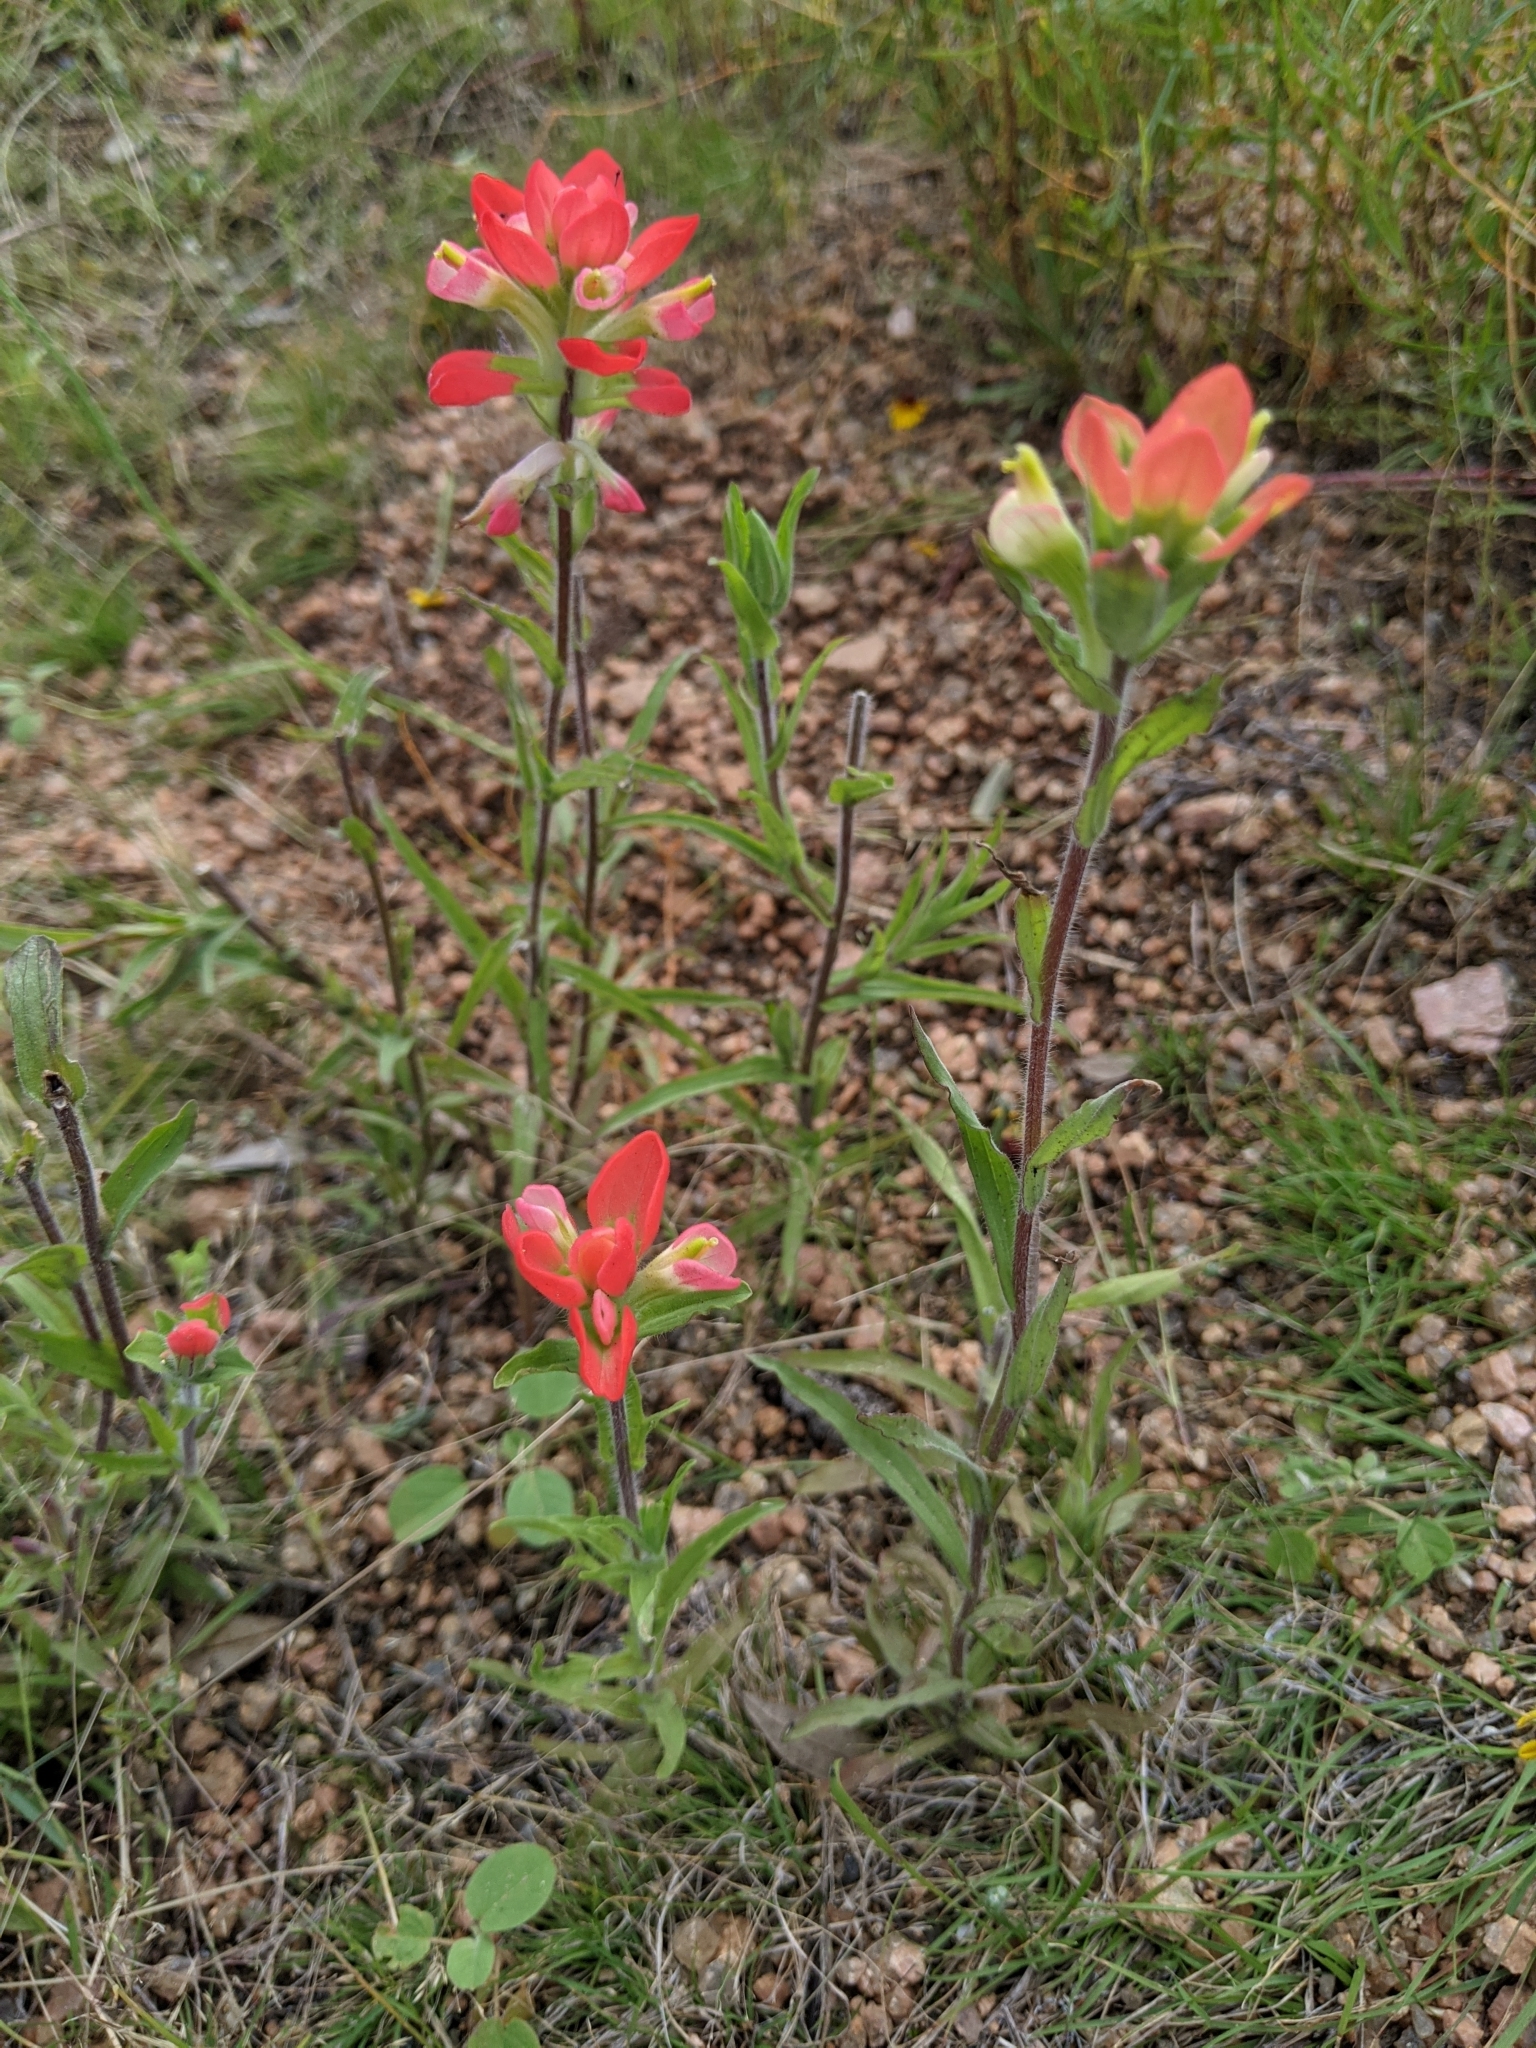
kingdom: Plantae
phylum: Tracheophyta
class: Magnoliopsida
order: Lamiales
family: Orobanchaceae
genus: Castilleja
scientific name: Castilleja indivisa
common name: Texas paintbrush
